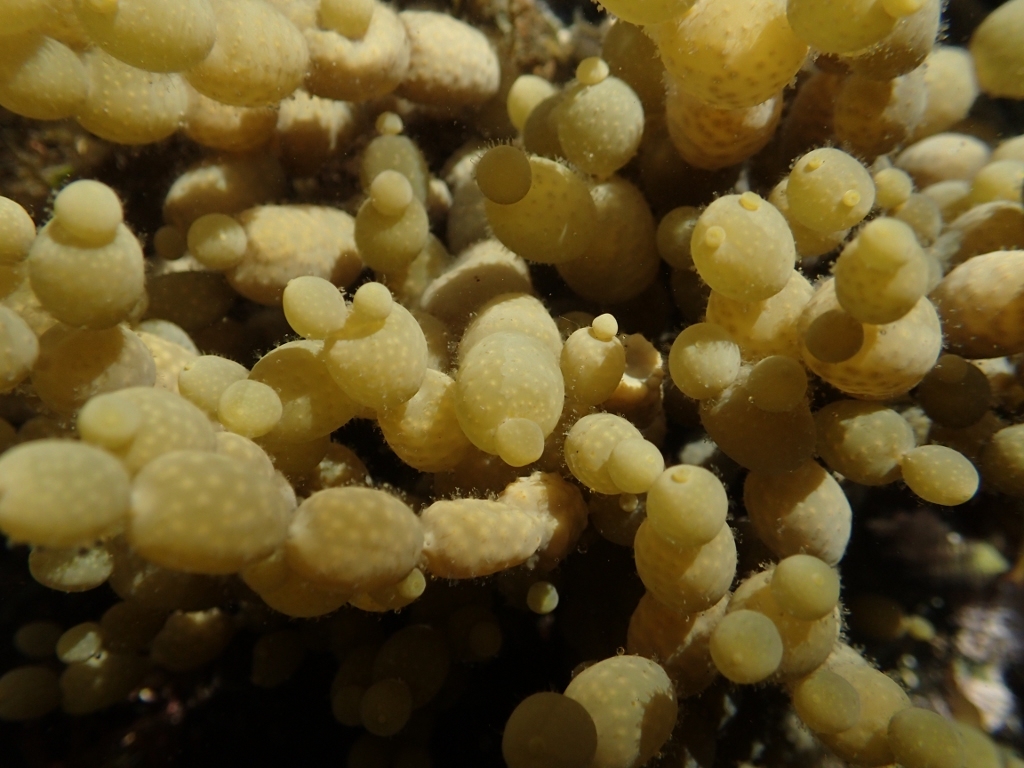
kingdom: Chromista
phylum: Ochrophyta
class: Phaeophyceae
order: Fucales
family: Hormosiraceae
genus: Hormosira
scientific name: Hormosira banksii
